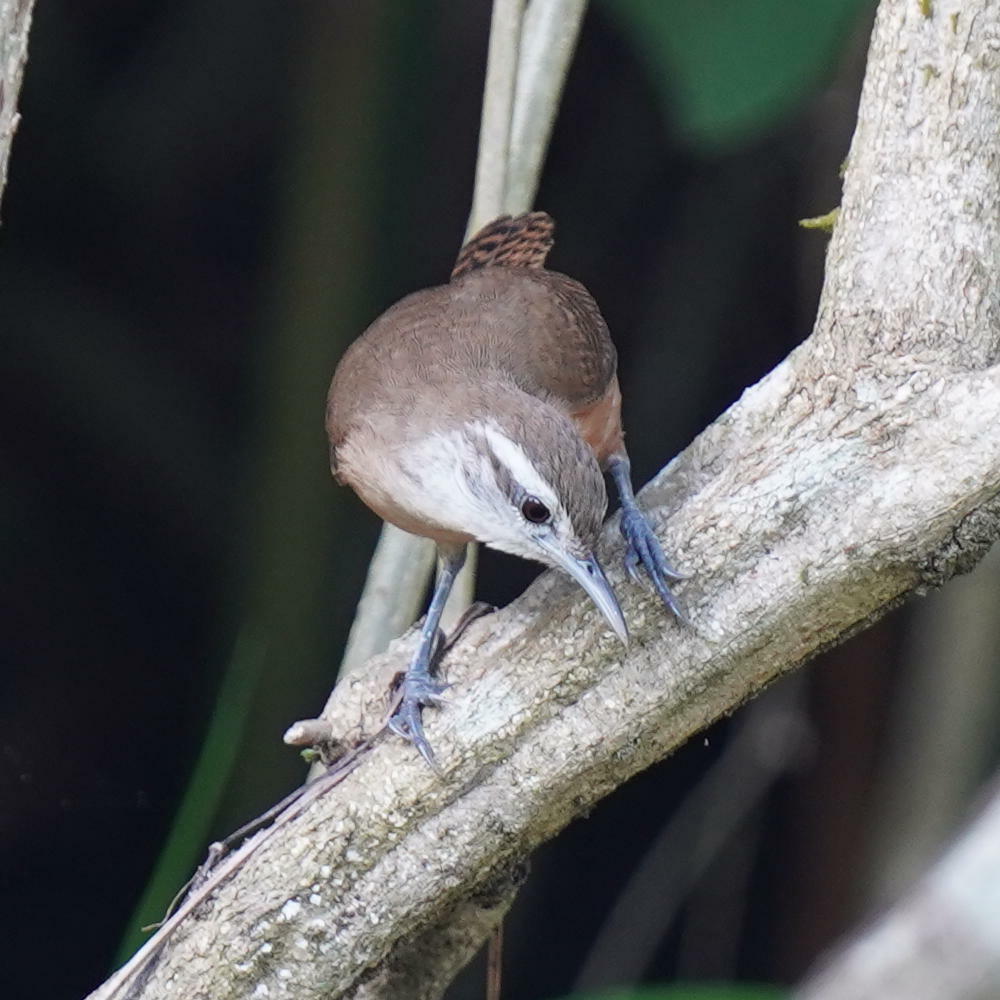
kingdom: Animalia
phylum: Chordata
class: Aves
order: Passeriformes
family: Troglodytidae
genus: Cantorchilus
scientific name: Cantorchilus modestus
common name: Cabanis's wren
